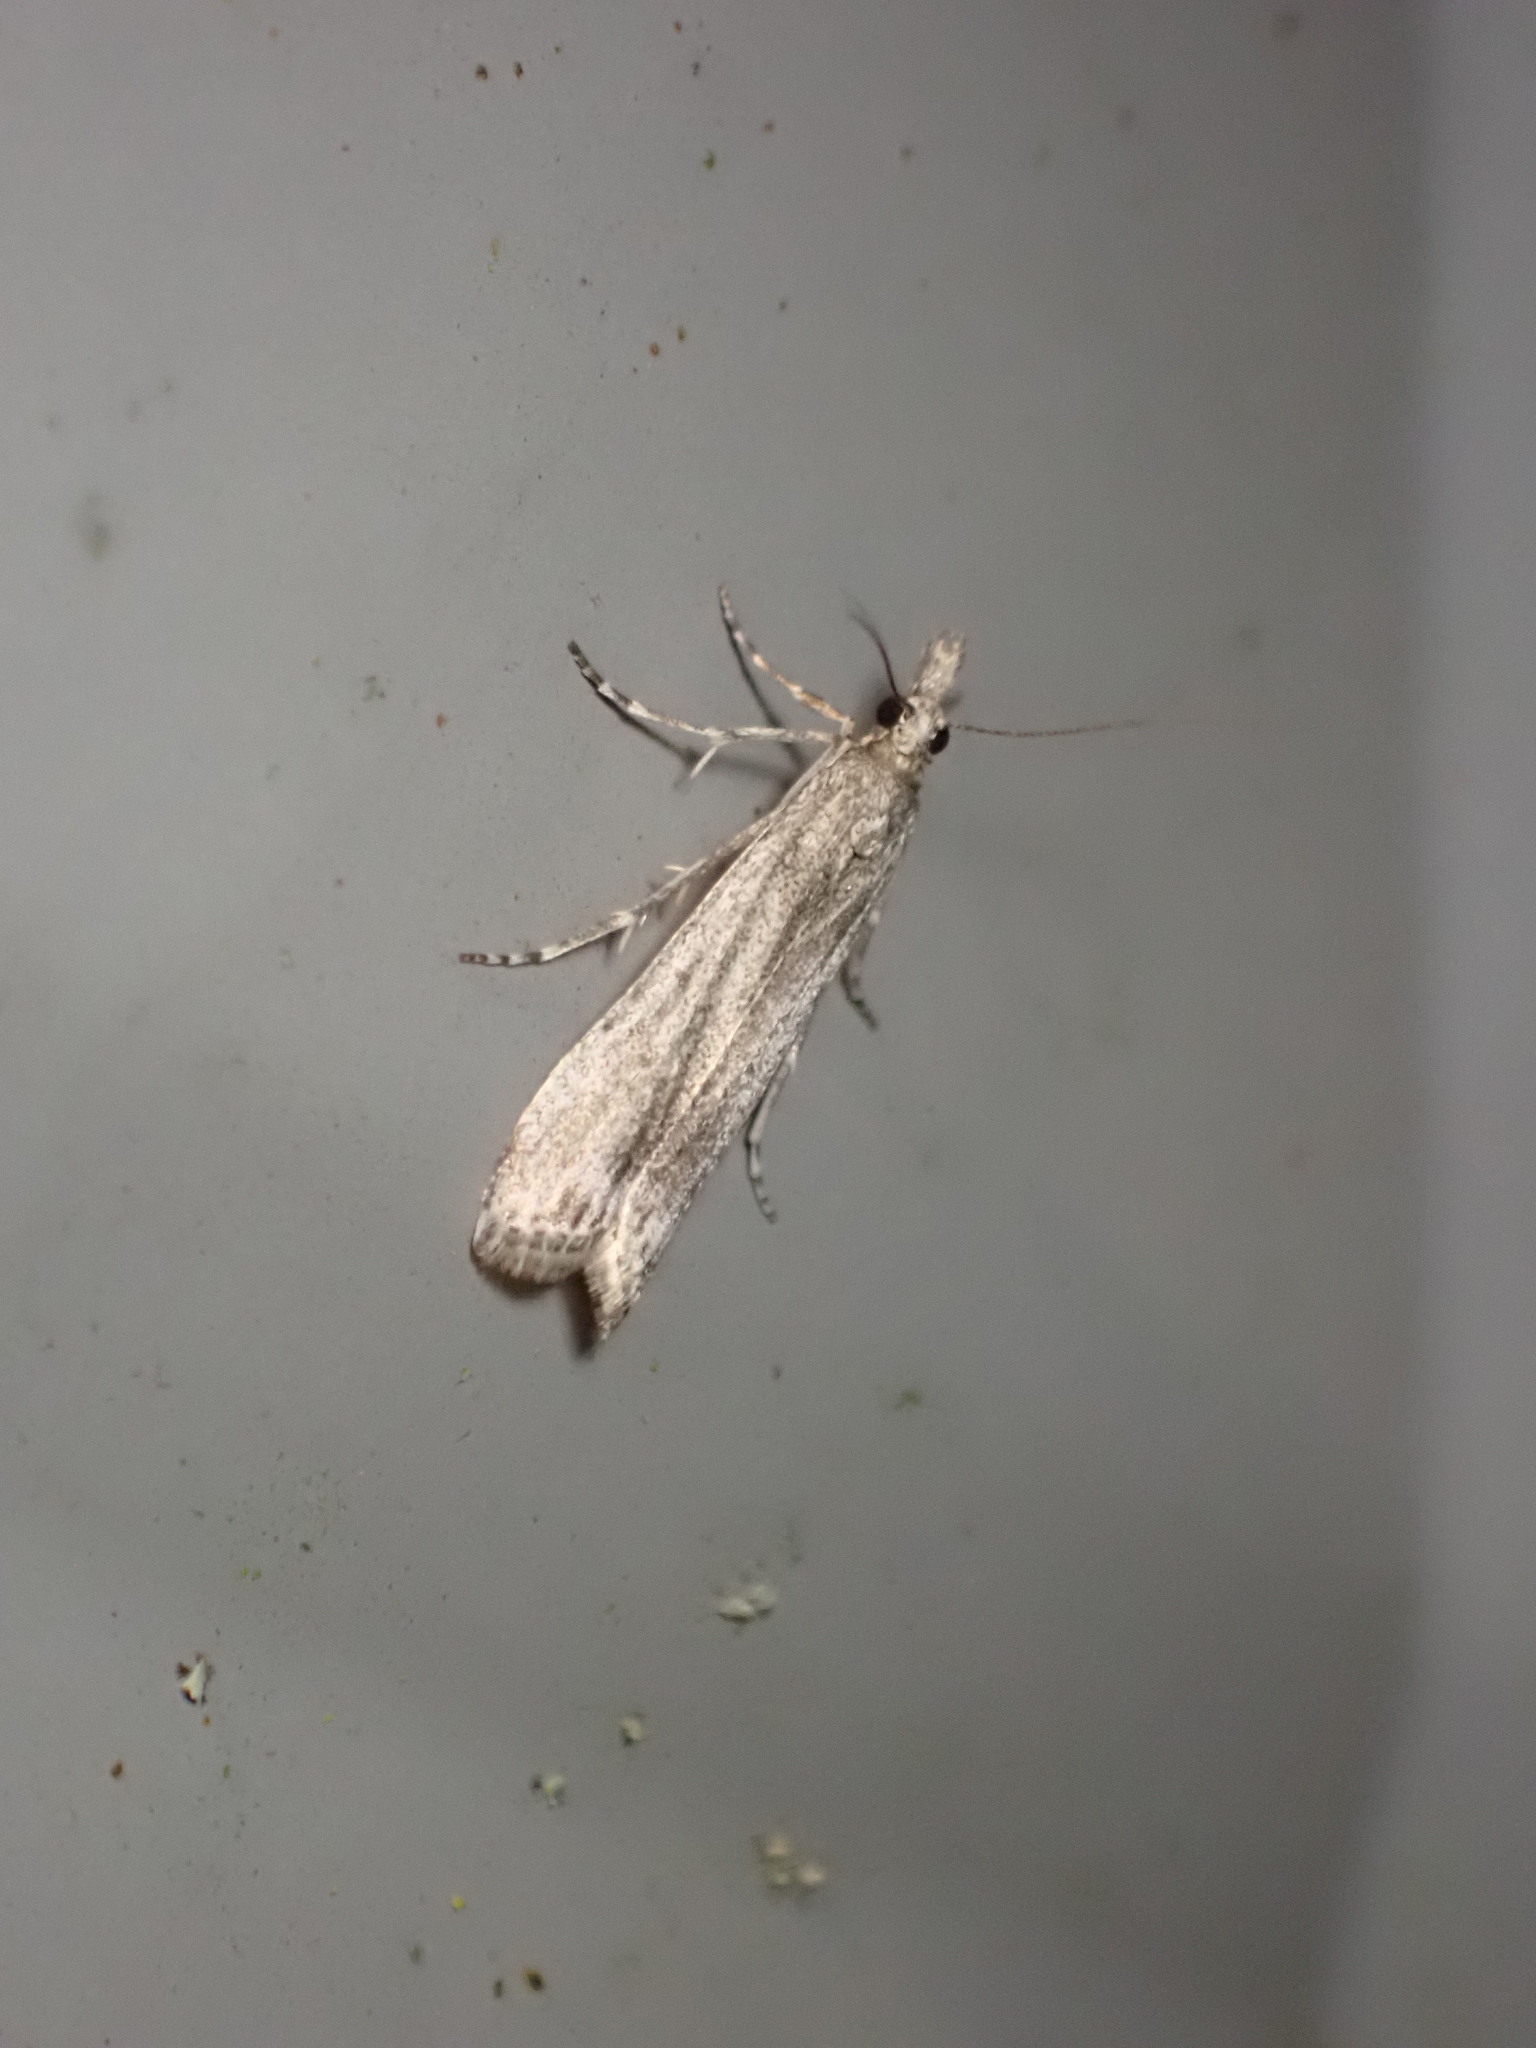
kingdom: Animalia
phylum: Arthropoda
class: Insecta
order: Lepidoptera
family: Crambidae
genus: Eudonia
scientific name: Eudonia leptalea
